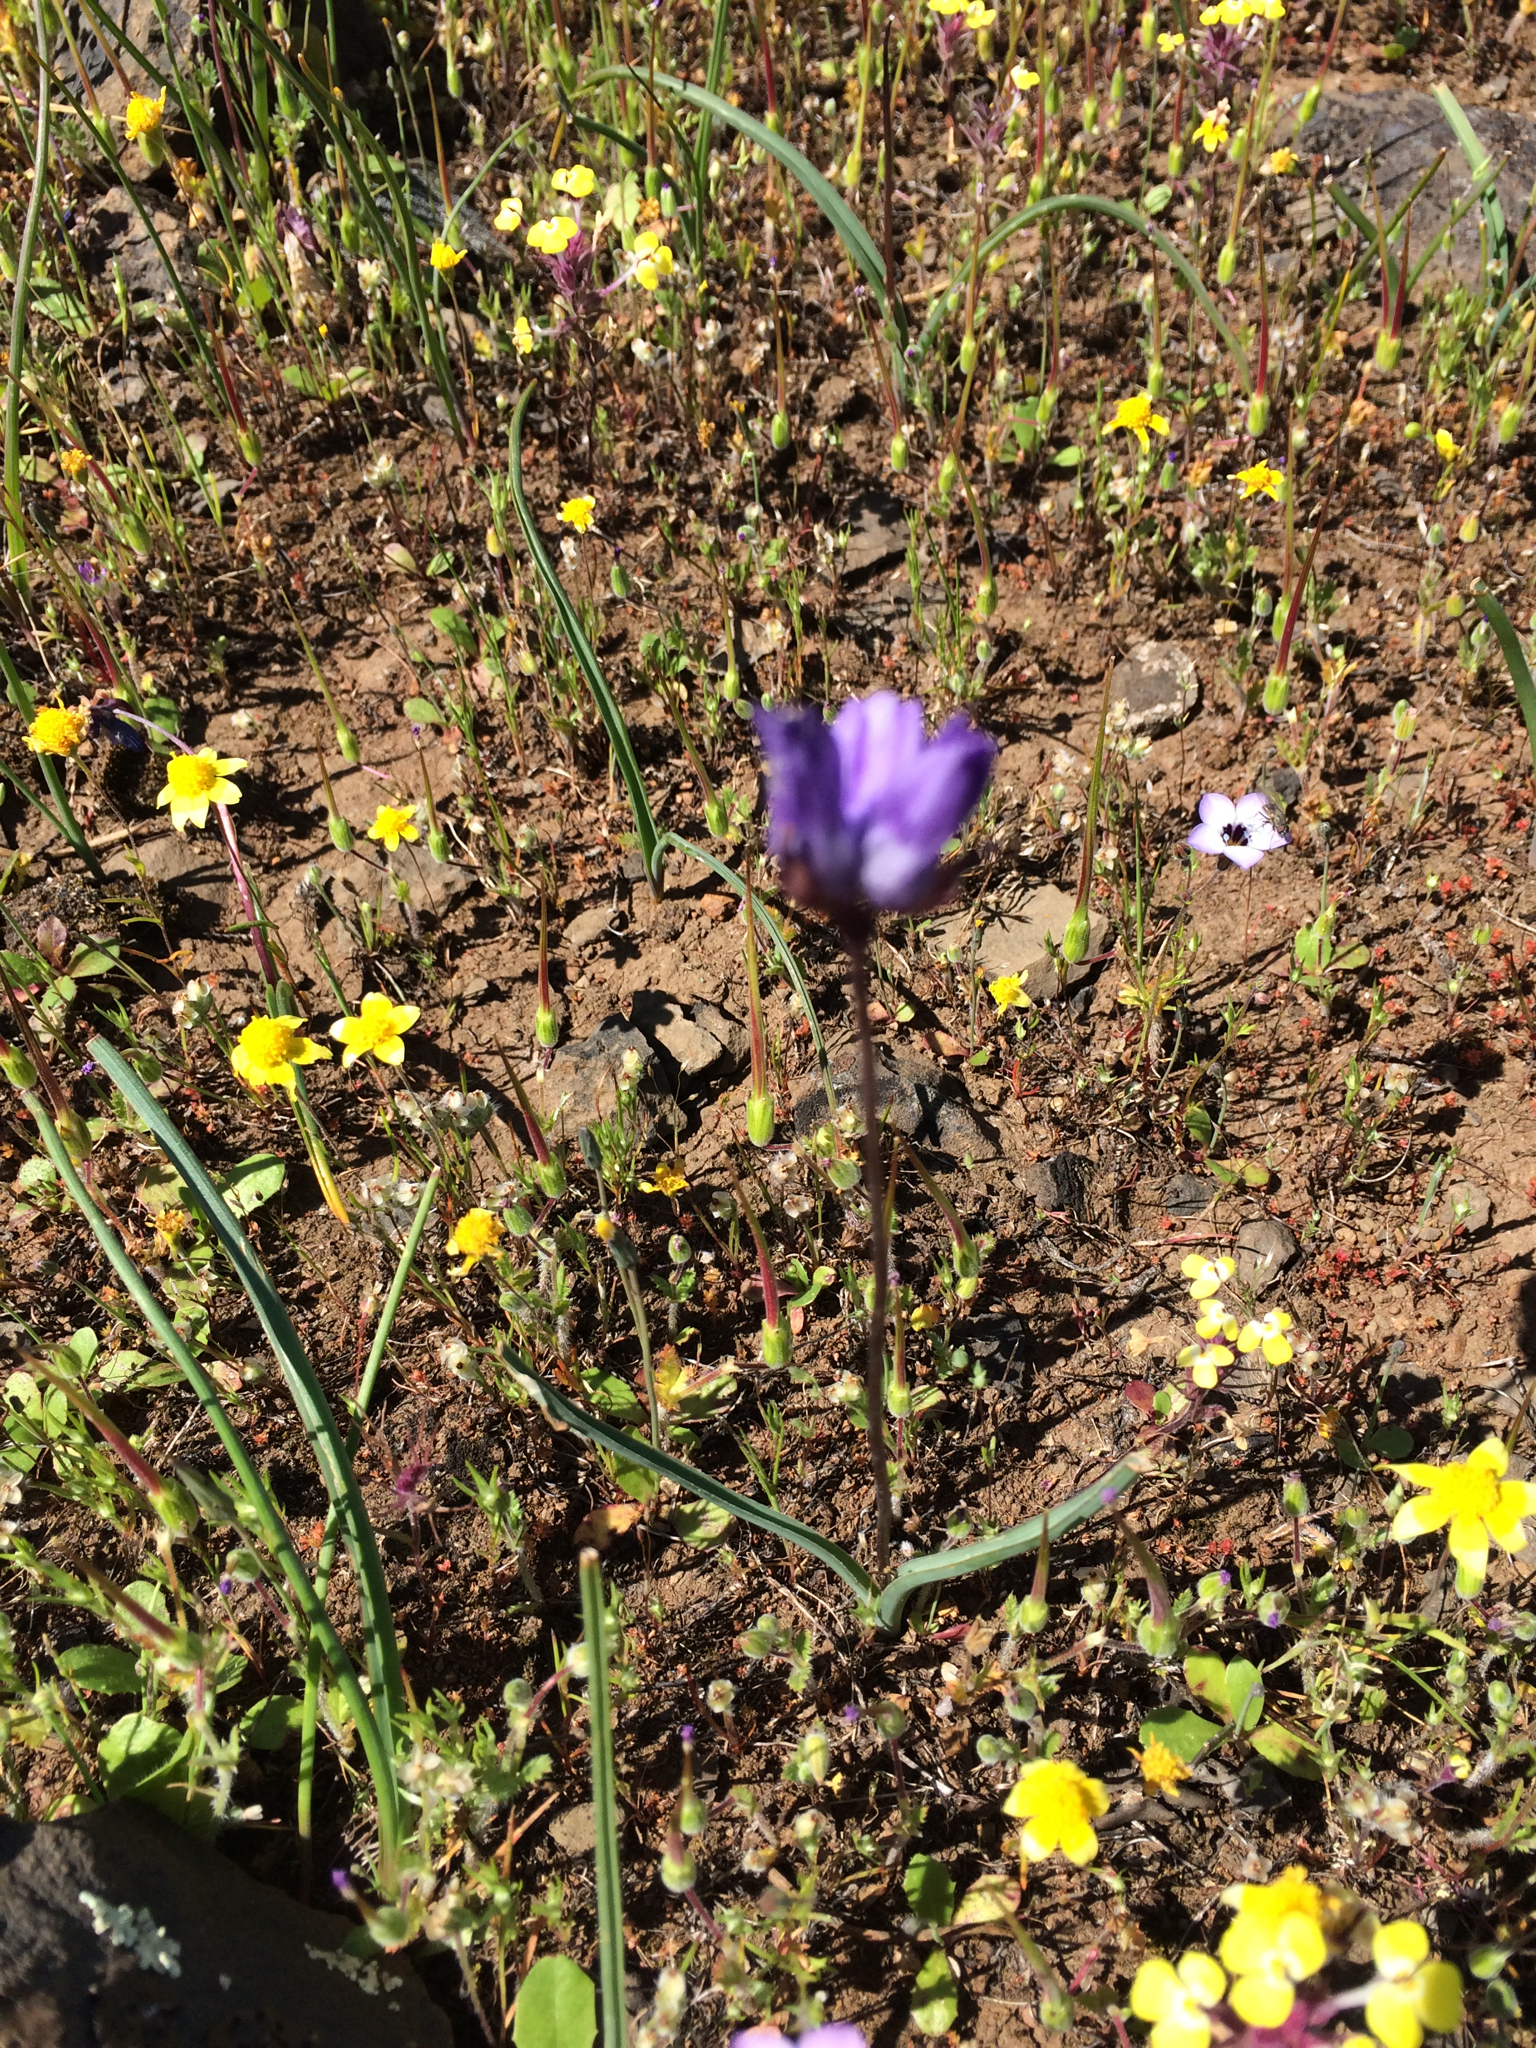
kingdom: Plantae
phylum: Tracheophyta
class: Liliopsida
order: Asparagales
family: Asparagaceae
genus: Dipterostemon
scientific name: Dipterostemon capitatus
